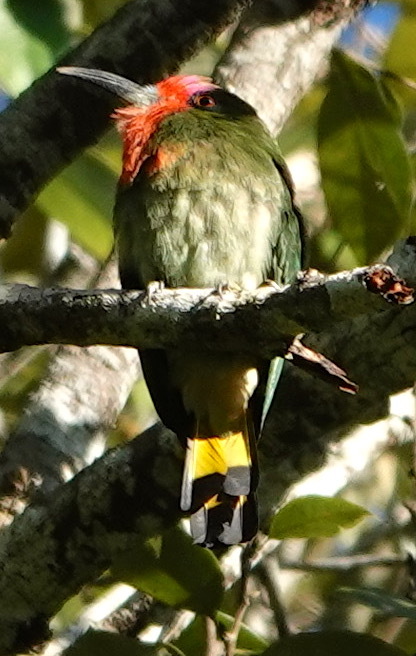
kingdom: Animalia
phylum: Chordata
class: Aves
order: Coraciiformes
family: Meropidae
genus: Nyctyornis
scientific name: Nyctyornis amictus
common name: Red-bearded bee-eater
